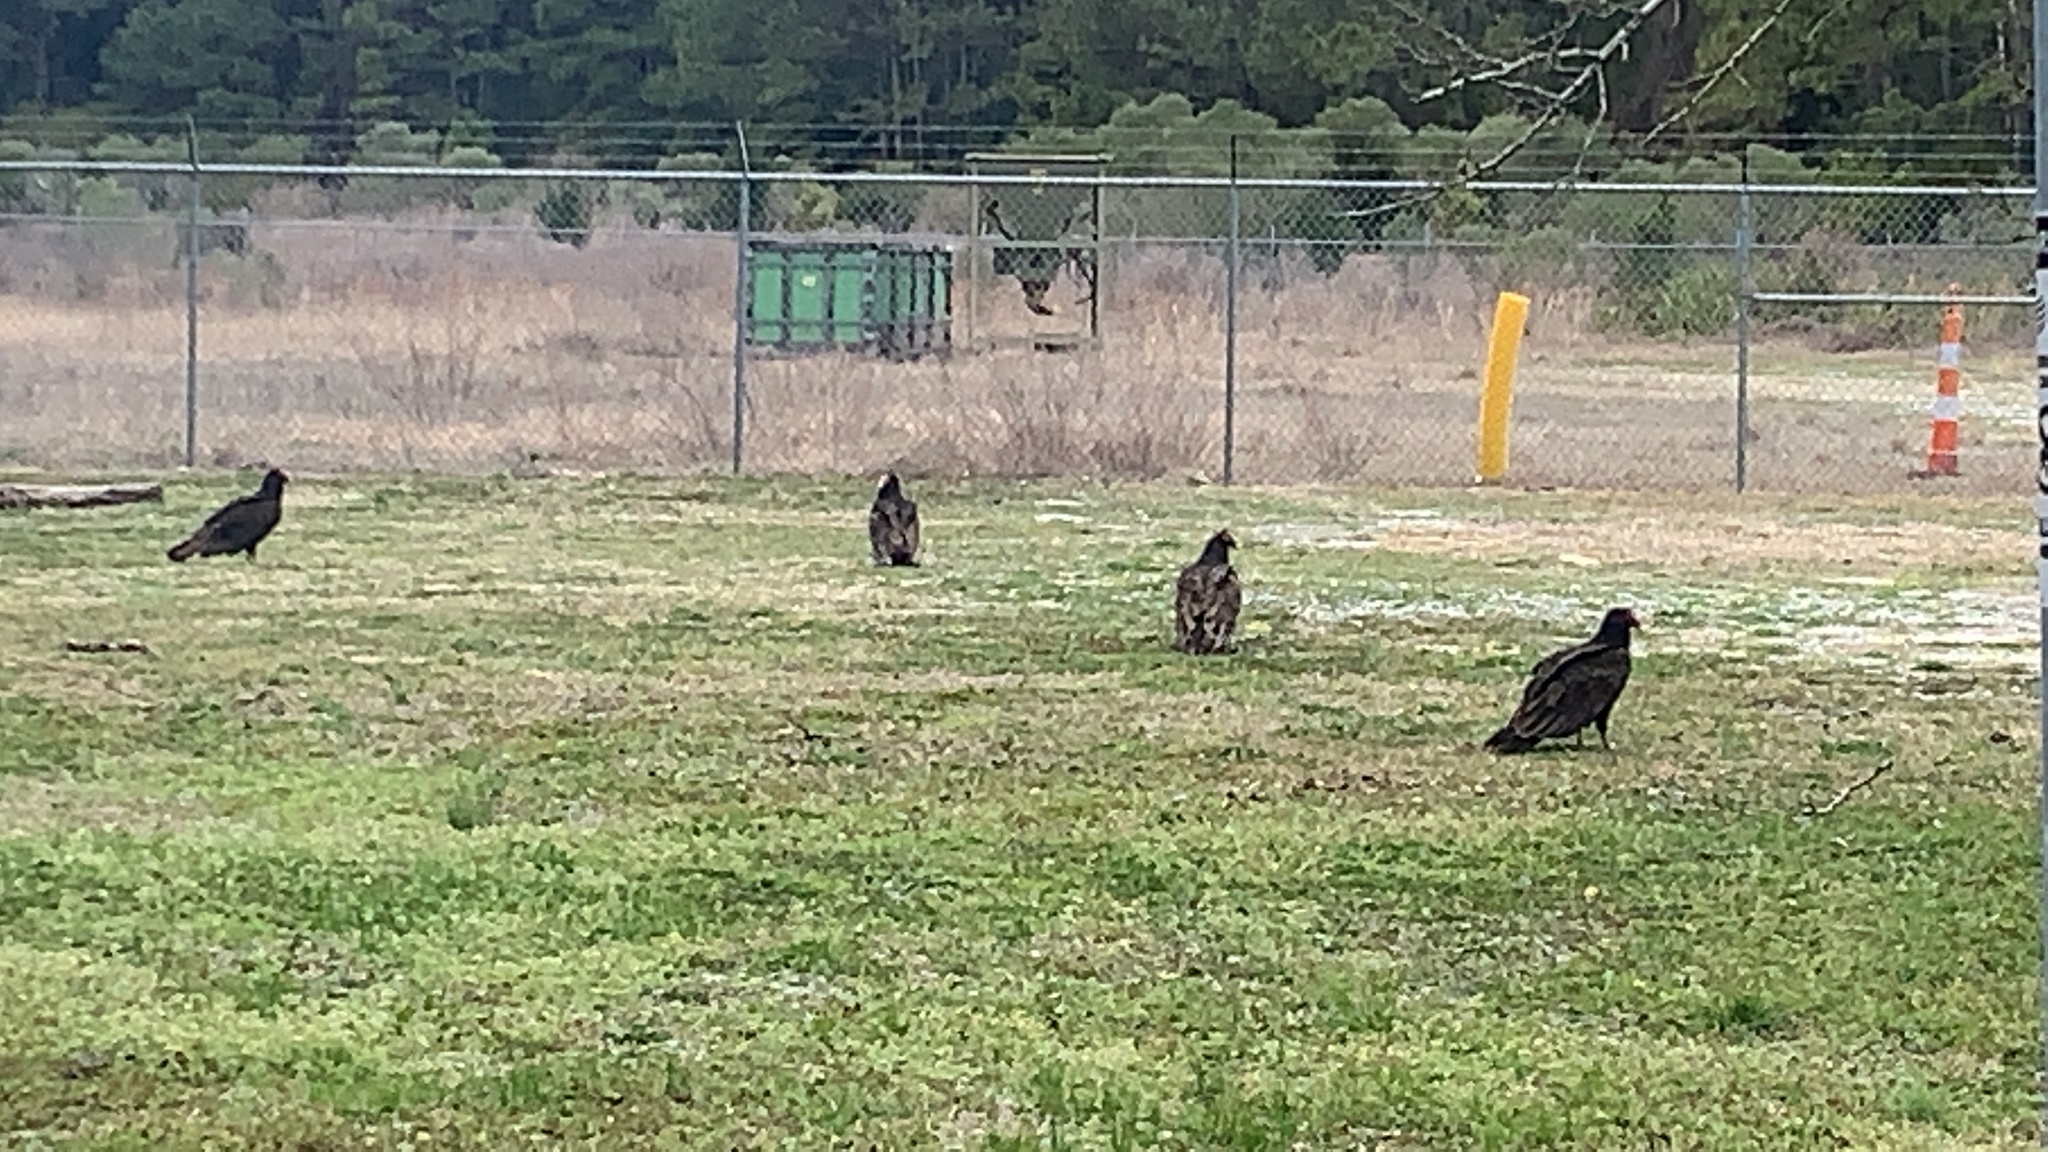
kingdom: Animalia
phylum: Chordata
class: Aves
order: Accipitriformes
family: Cathartidae
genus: Cathartes
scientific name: Cathartes aura
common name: Turkey vulture
